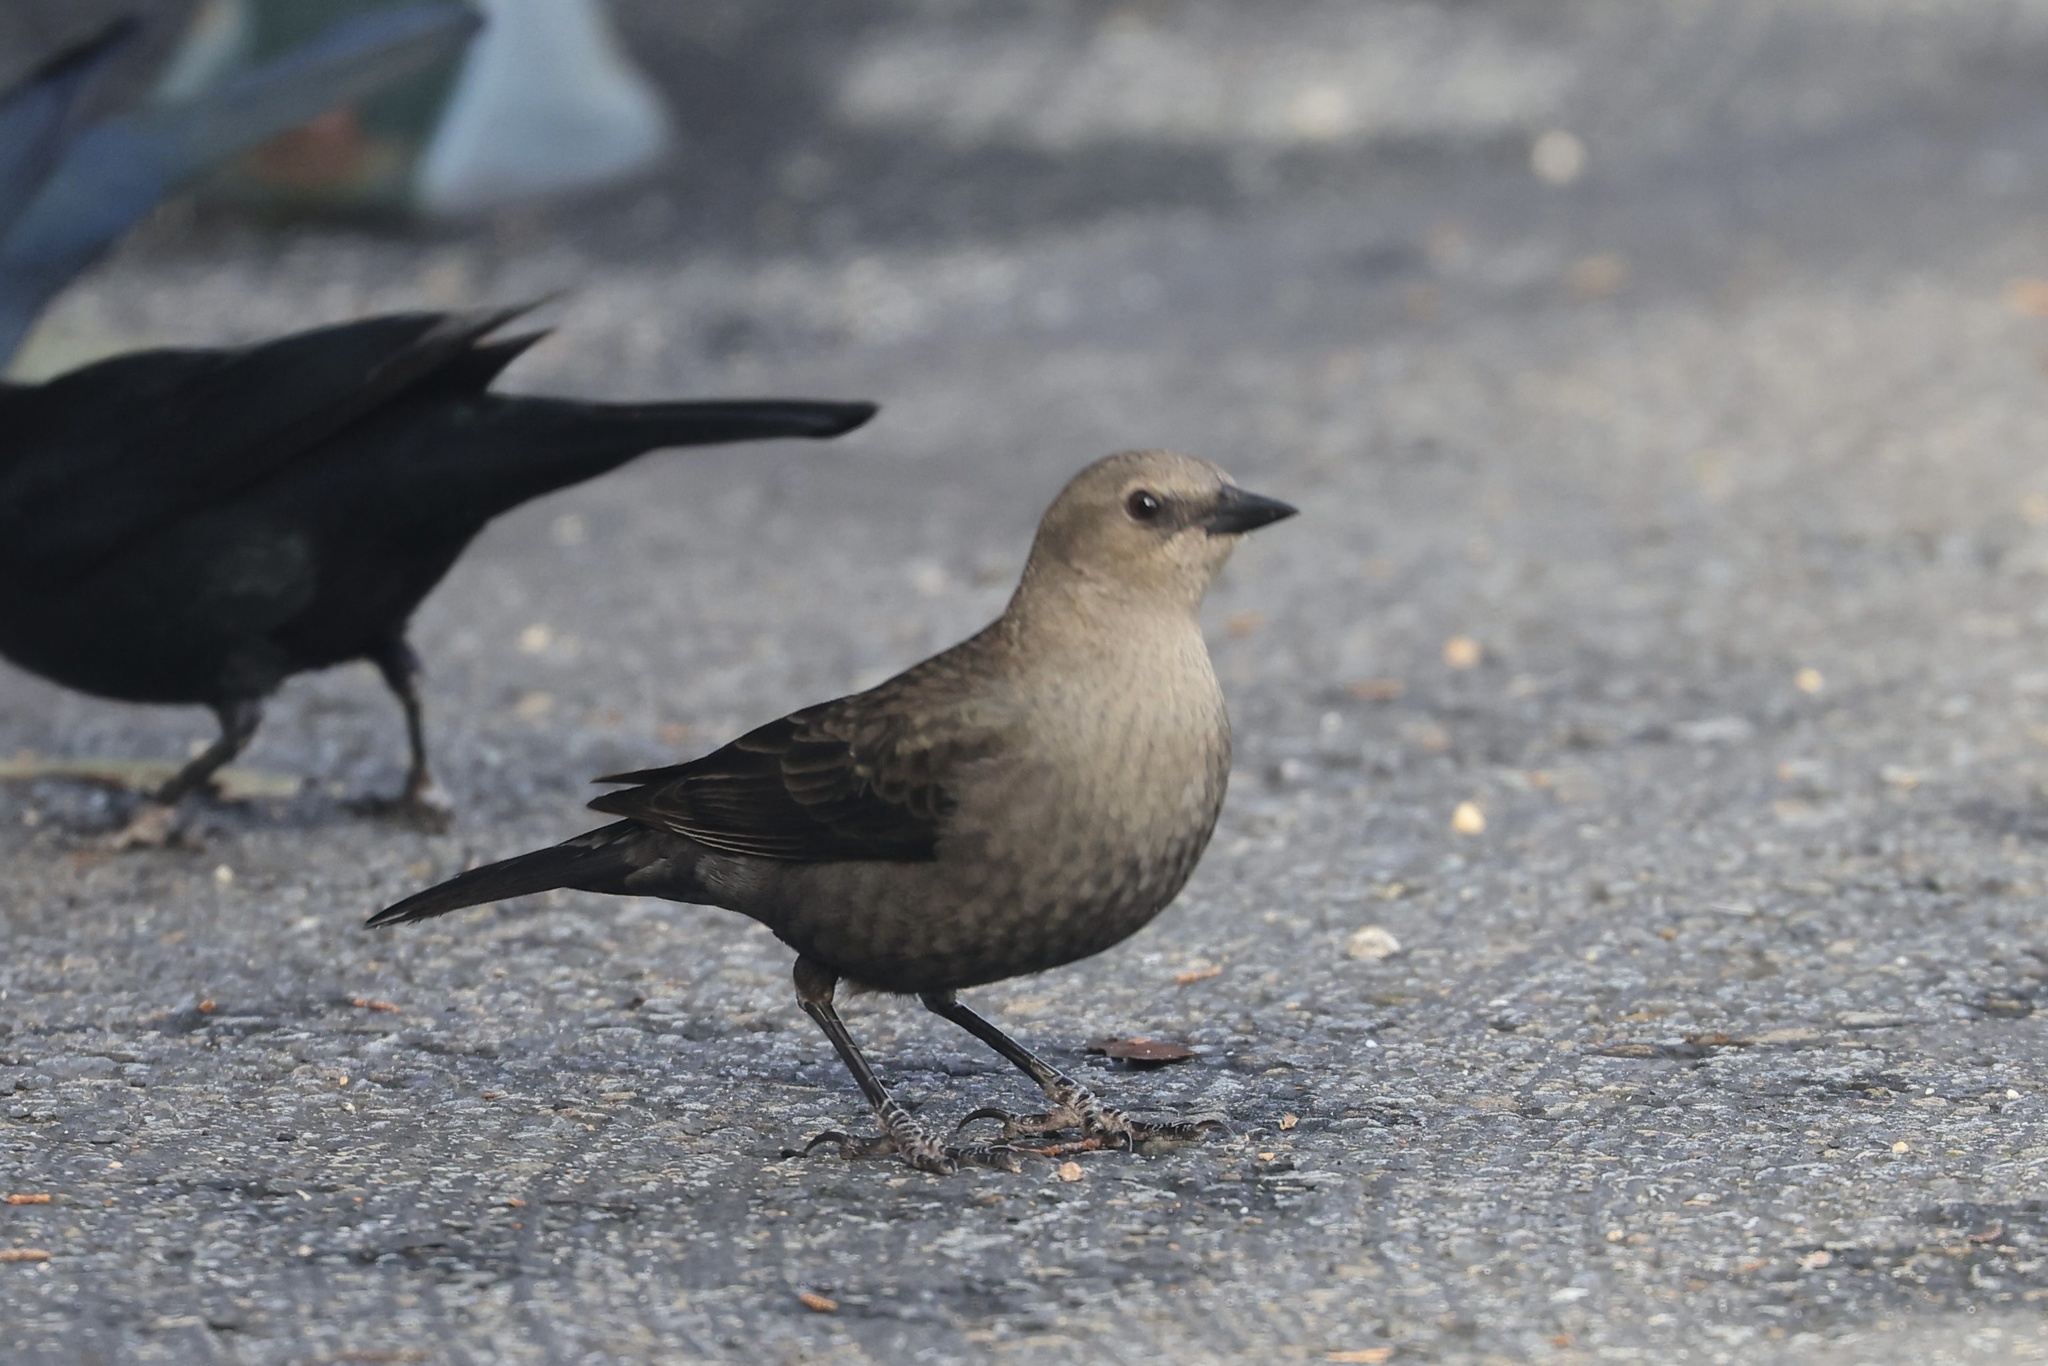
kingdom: Animalia
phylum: Chordata
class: Aves
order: Passeriformes
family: Icteridae
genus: Euphagus
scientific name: Euphagus cyanocephalus
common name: Brewer's blackbird
